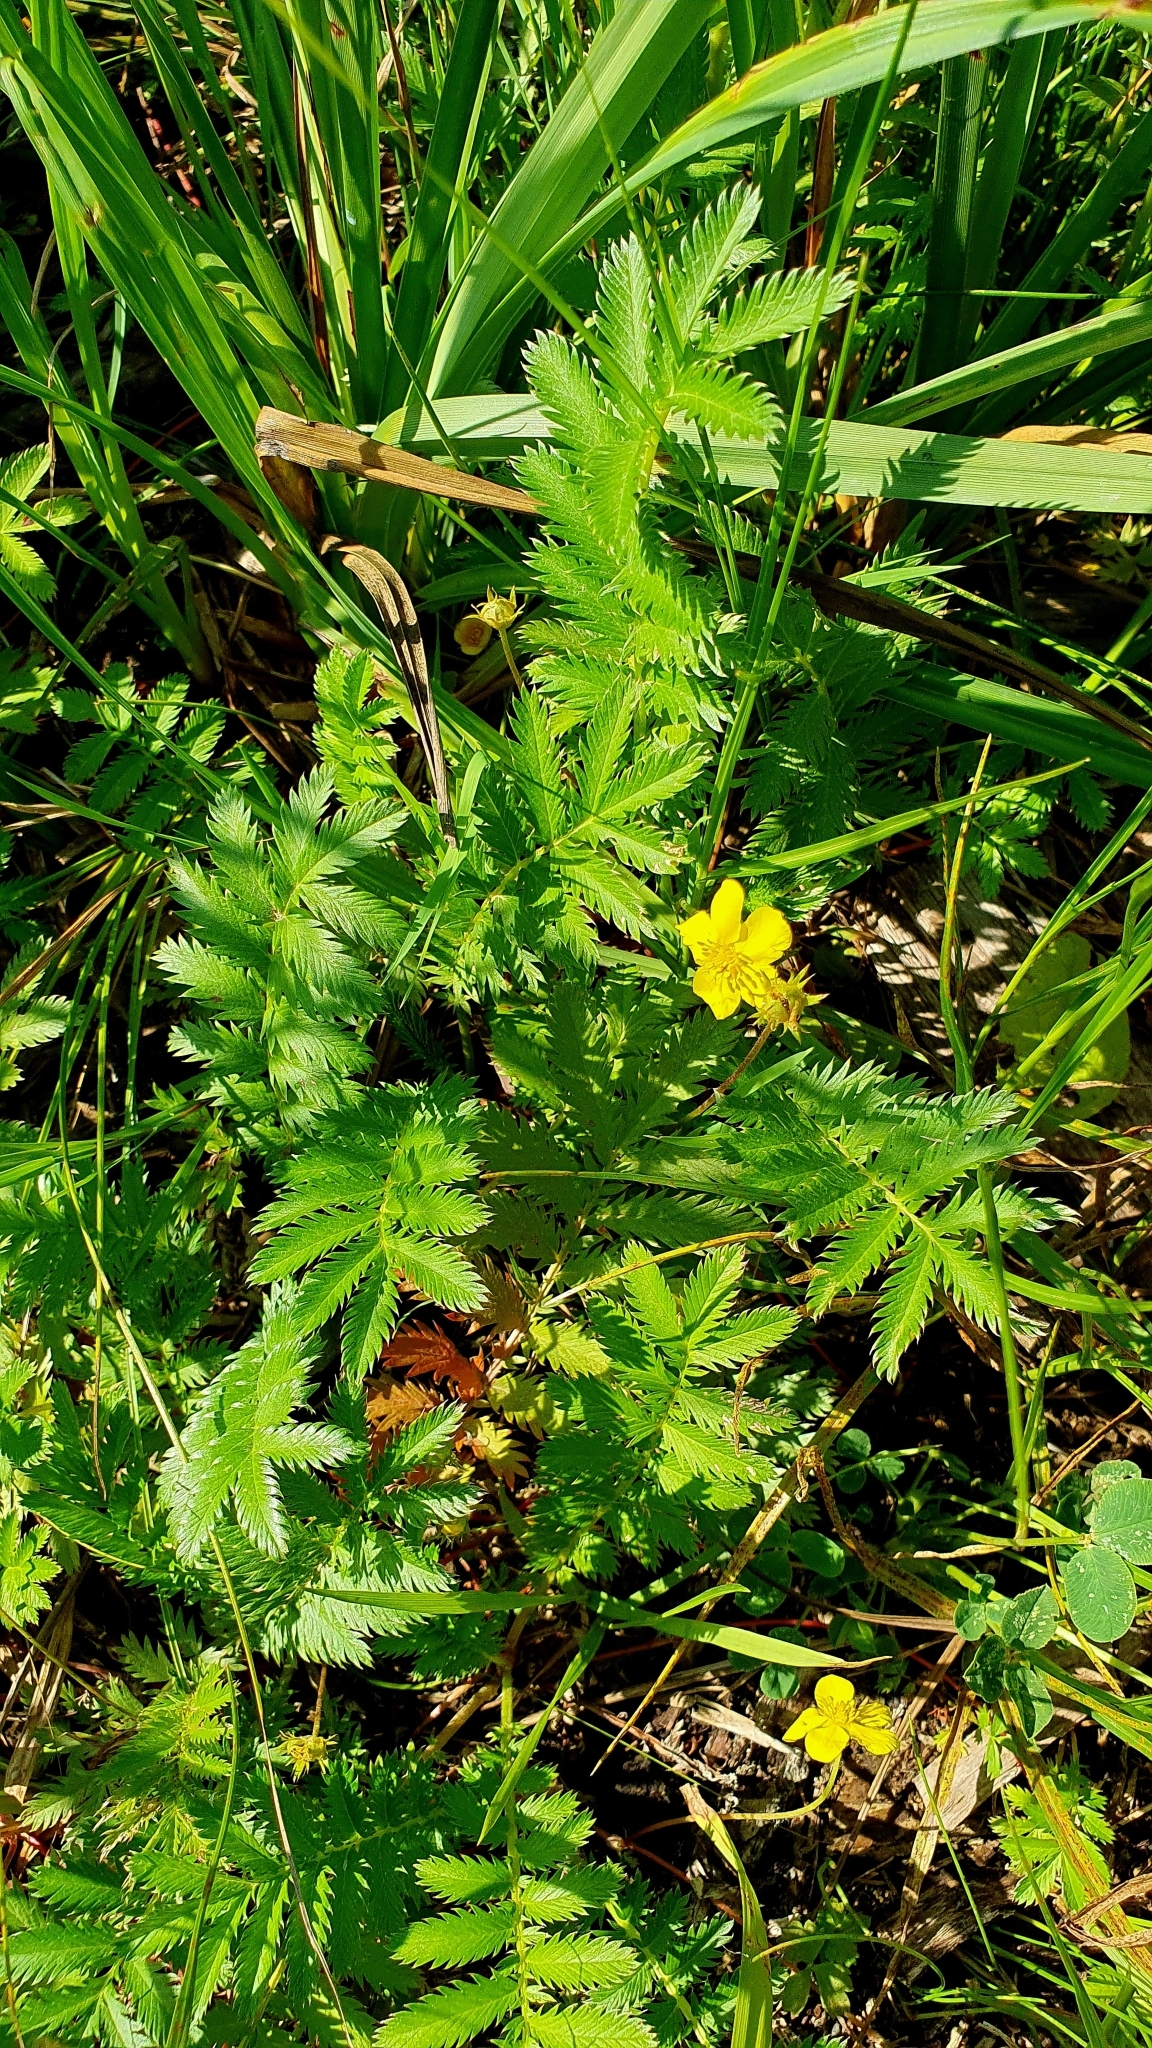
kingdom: Plantae
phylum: Tracheophyta
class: Magnoliopsida
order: Rosales
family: Rosaceae
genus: Argentina
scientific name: Argentina anserina
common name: Common silverweed
